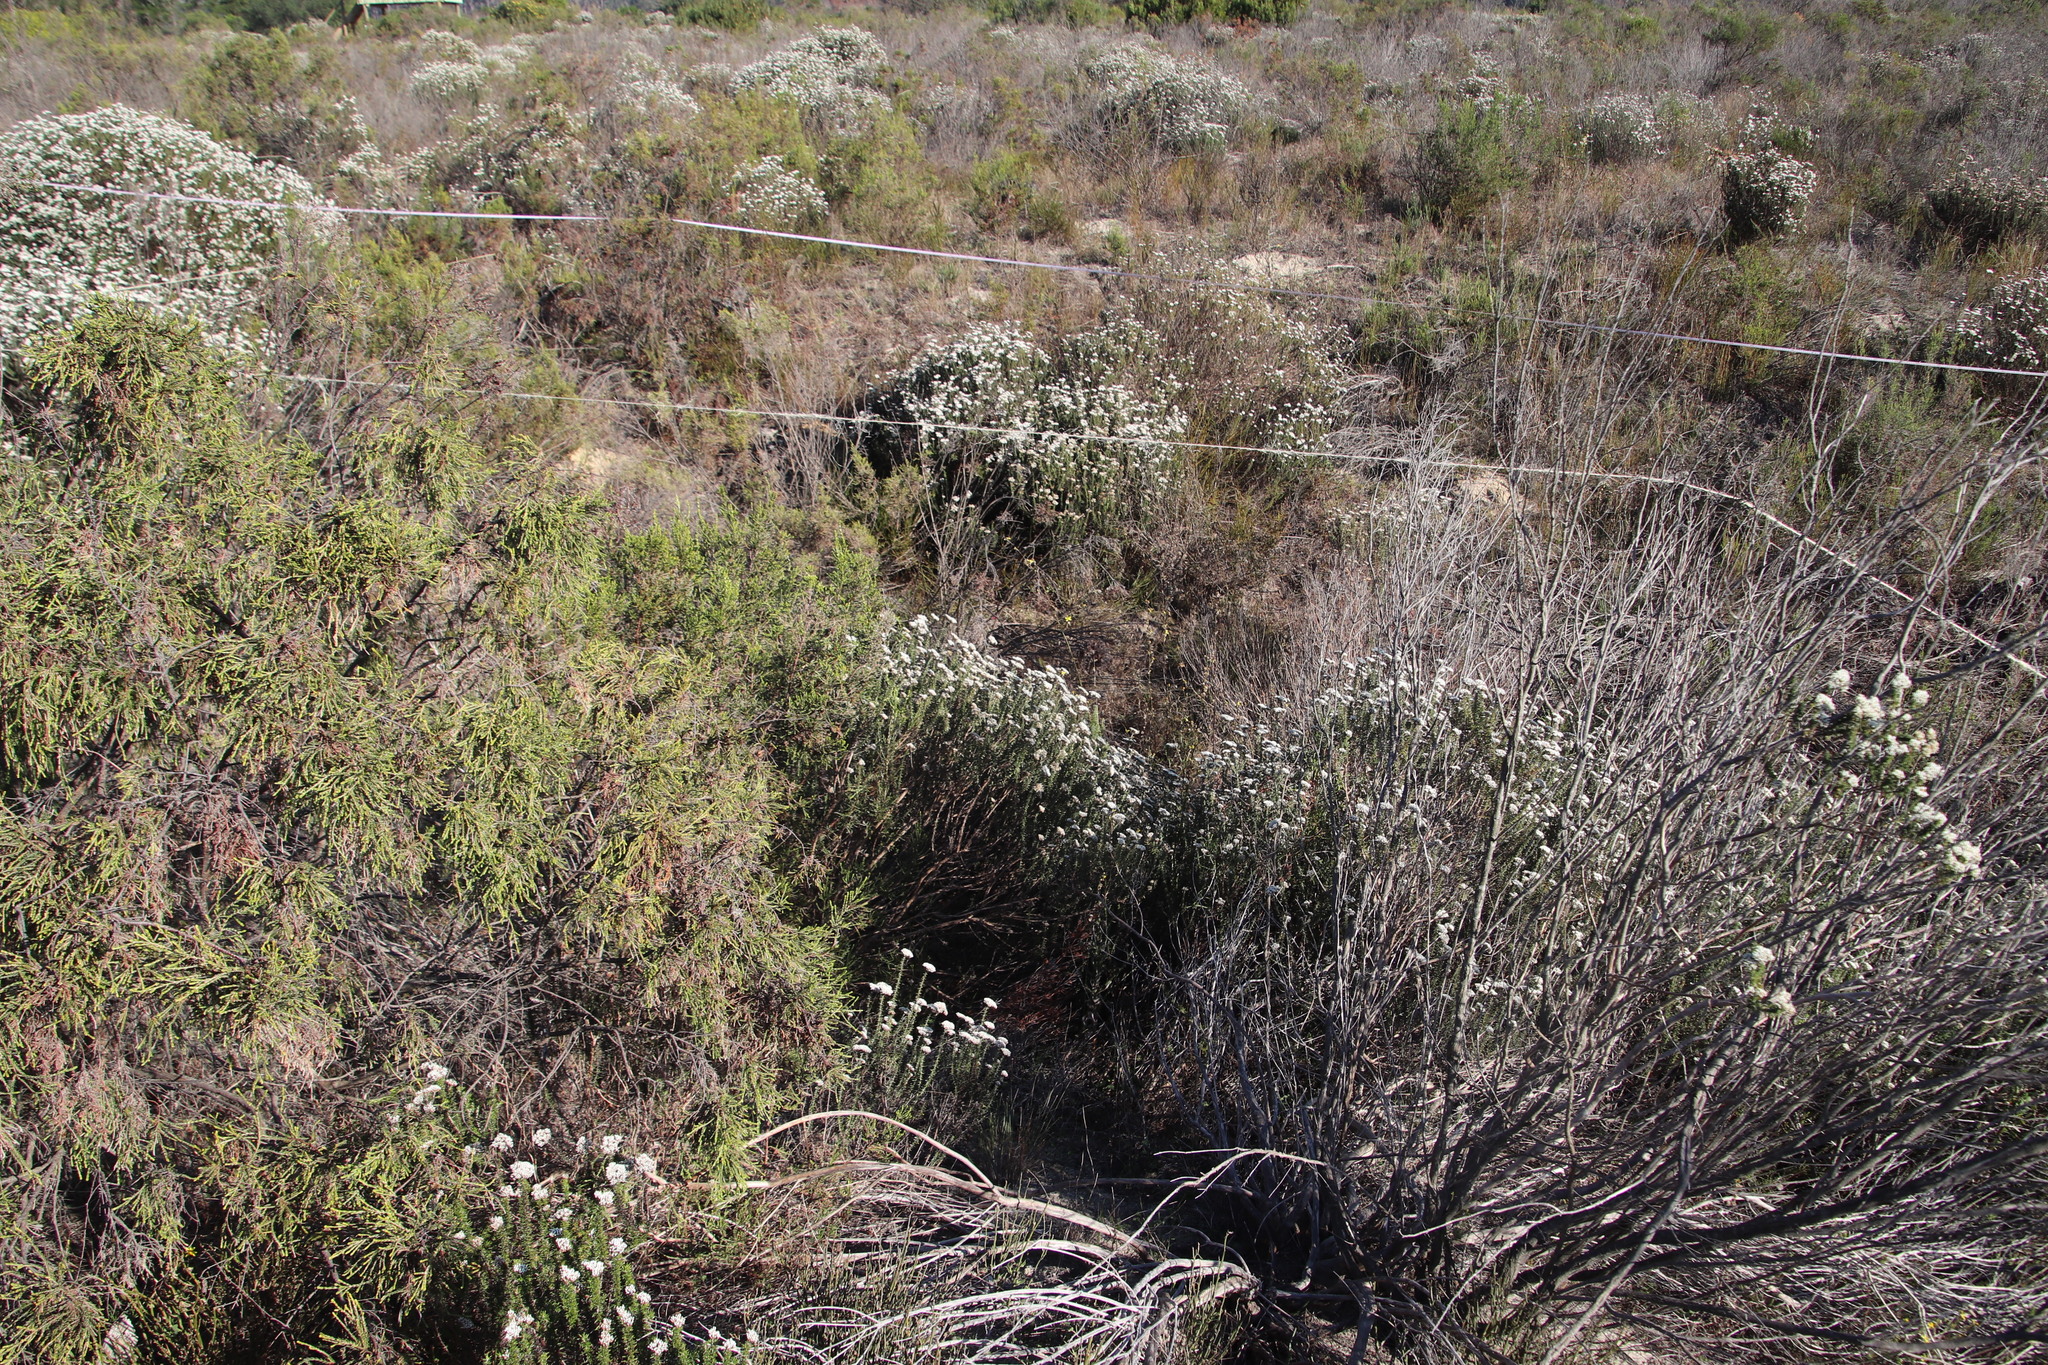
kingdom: Plantae
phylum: Tracheophyta
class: Magnoliopsida
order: Asterales
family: Asteraceae
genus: Metalasia
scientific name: Metalasia densa
